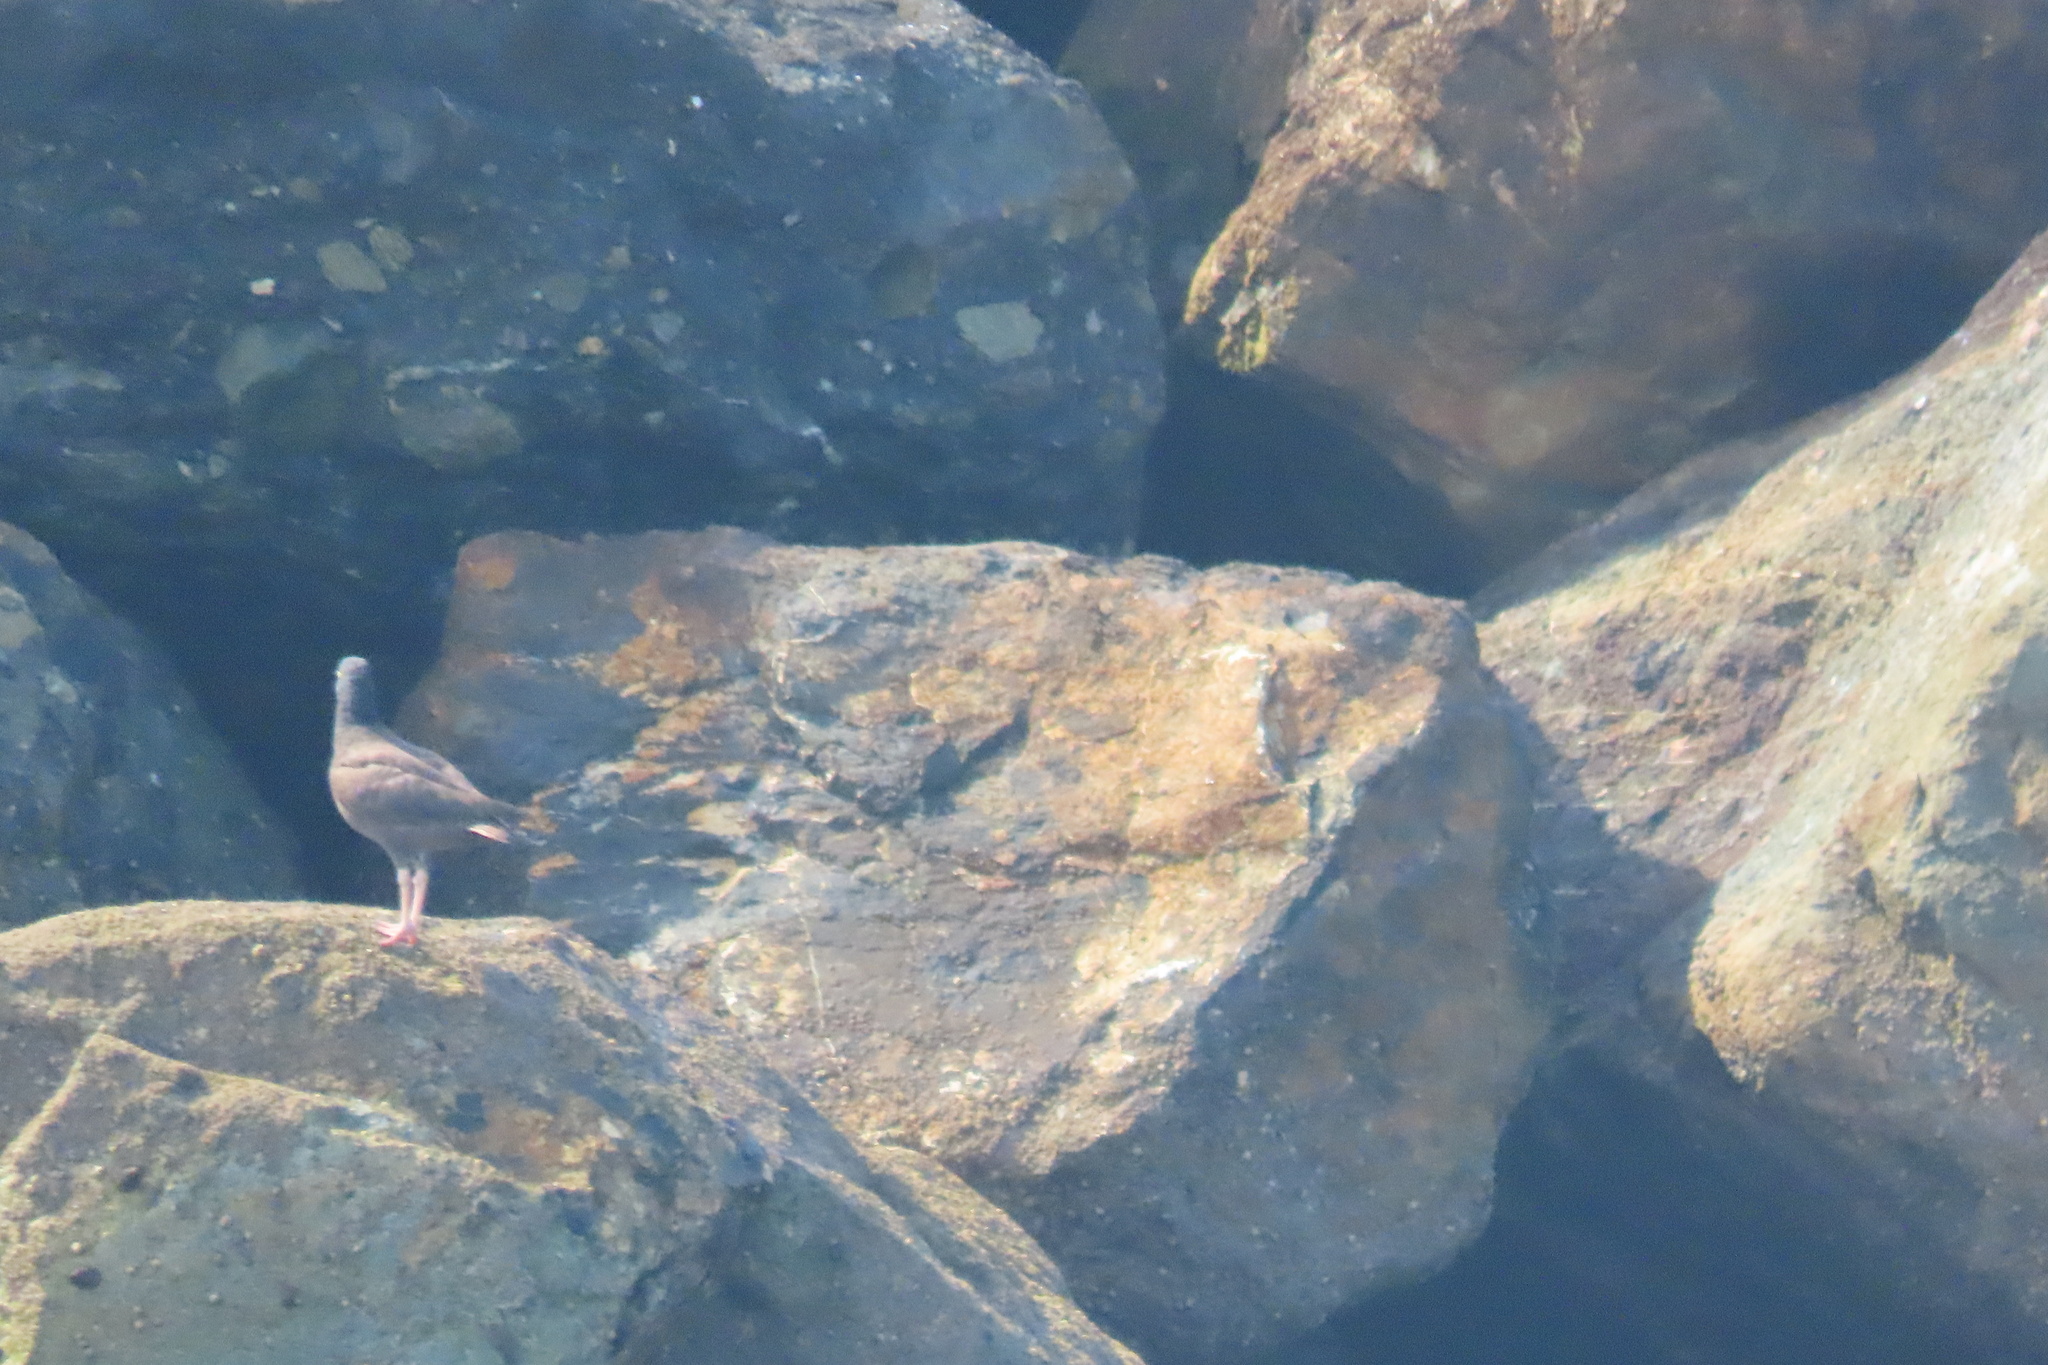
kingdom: Animalia
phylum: Chordata
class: Aves
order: Charadriiformes
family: Haematopodidae
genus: Haematopus
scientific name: Haematopus bachmani
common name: Black oystercatcher
